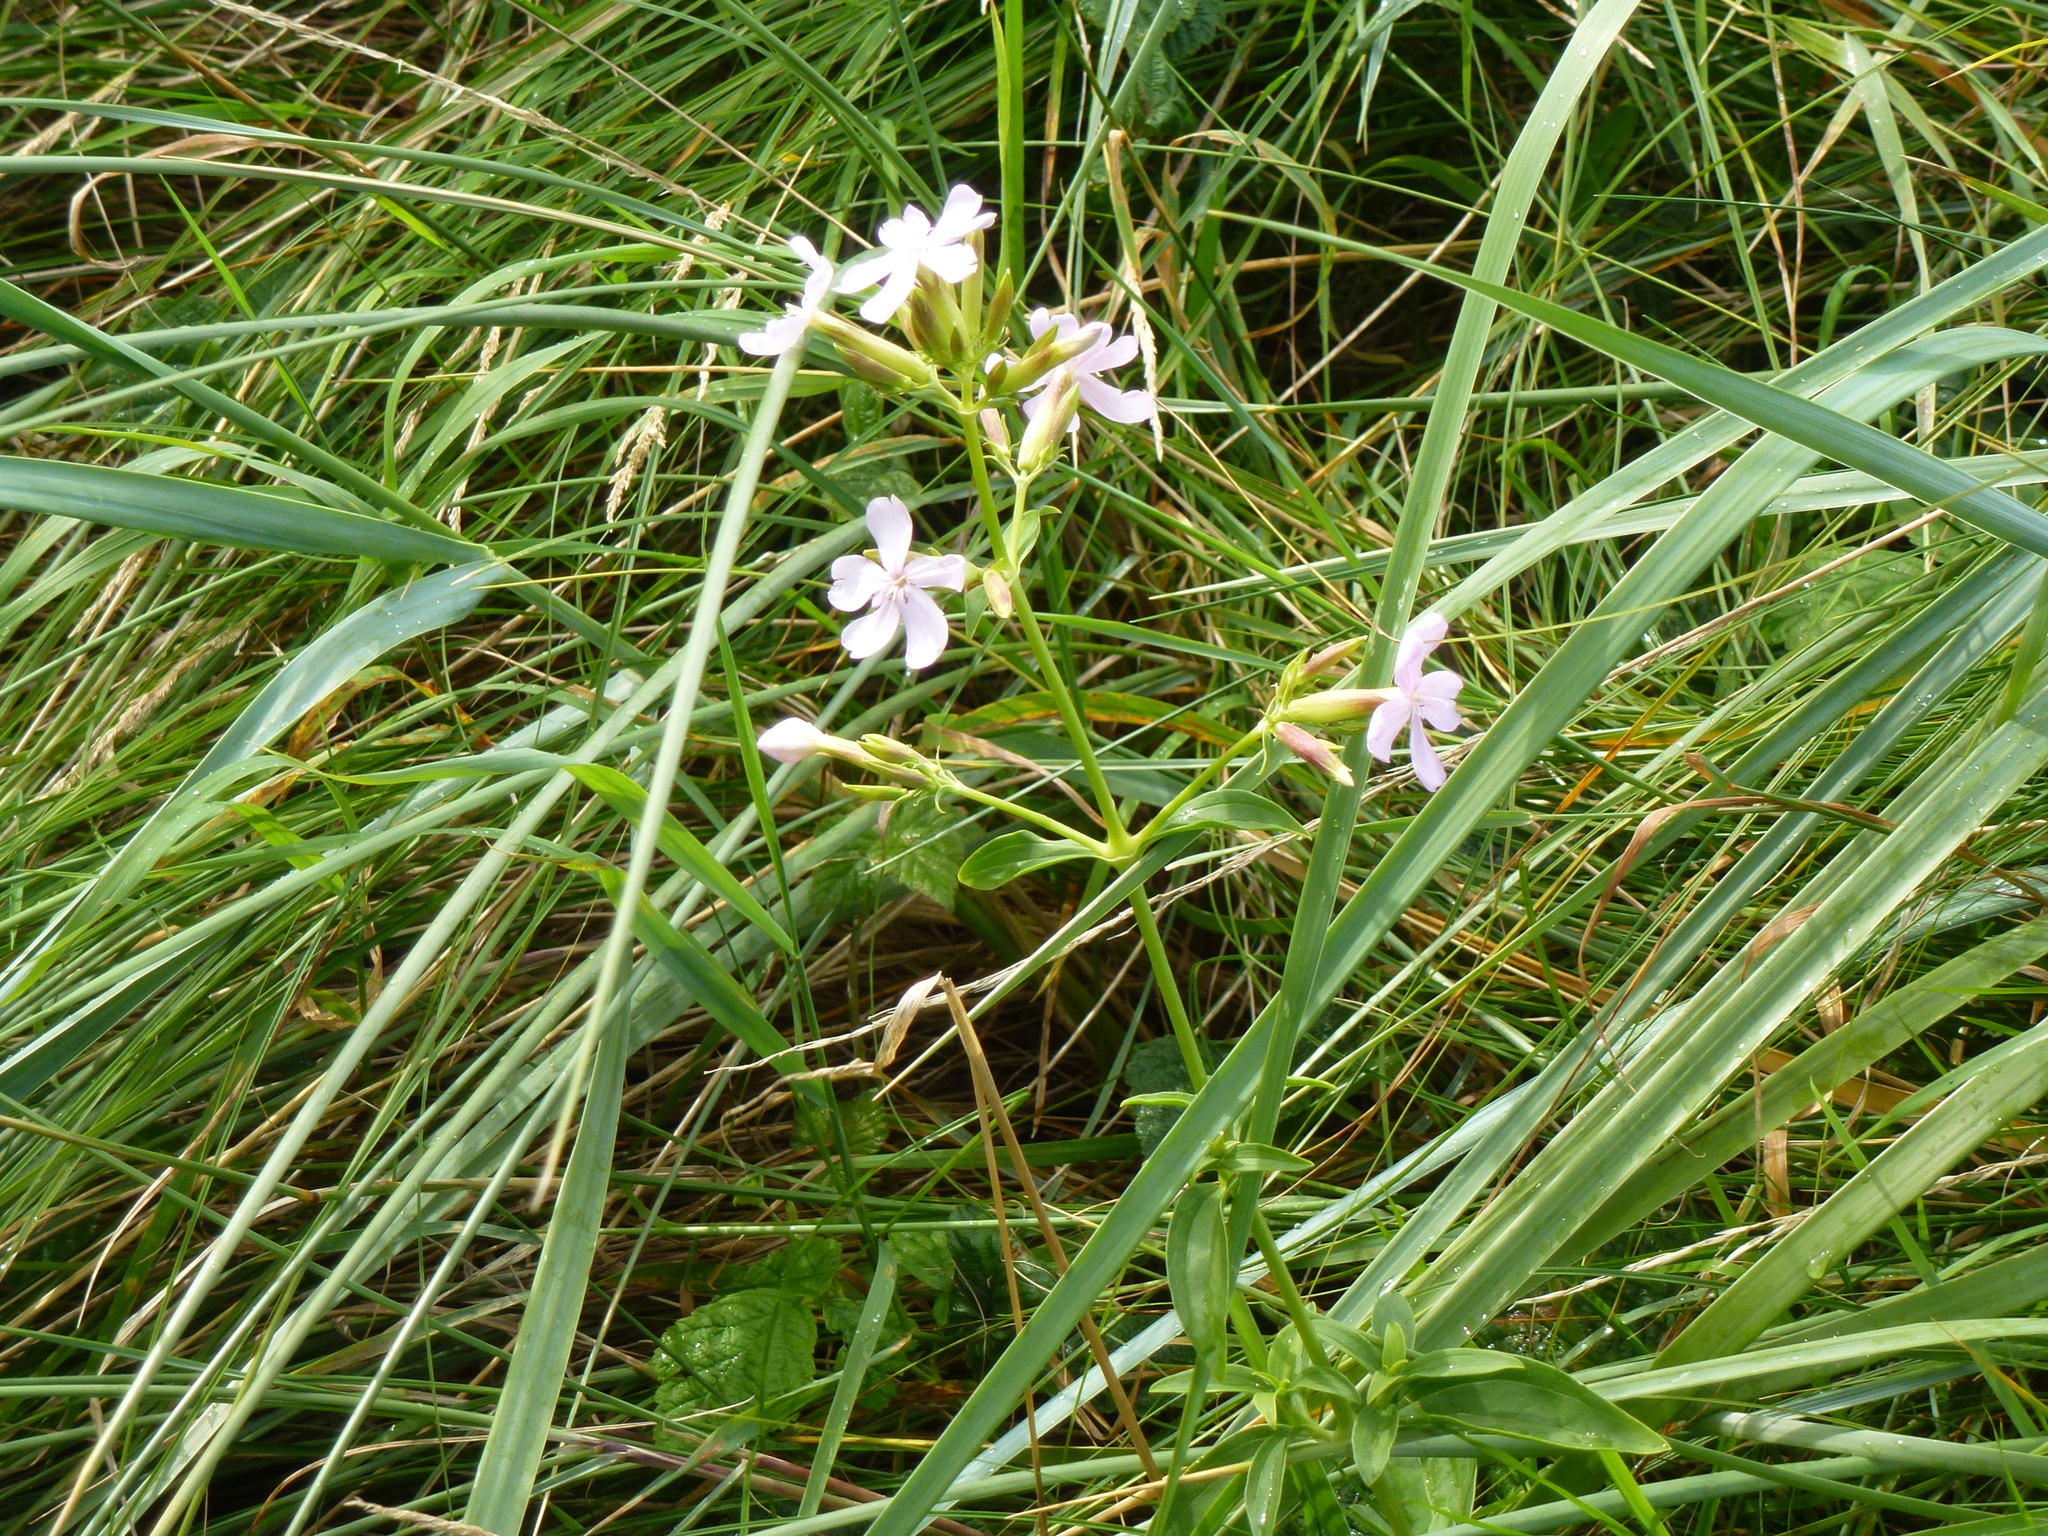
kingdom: Plantae
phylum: Tracheophyta
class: Magnoliopsida
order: Caryophyllales
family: Caryophyllaceae
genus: Saponaria
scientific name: Saponaria officinalis
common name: Soapwort
